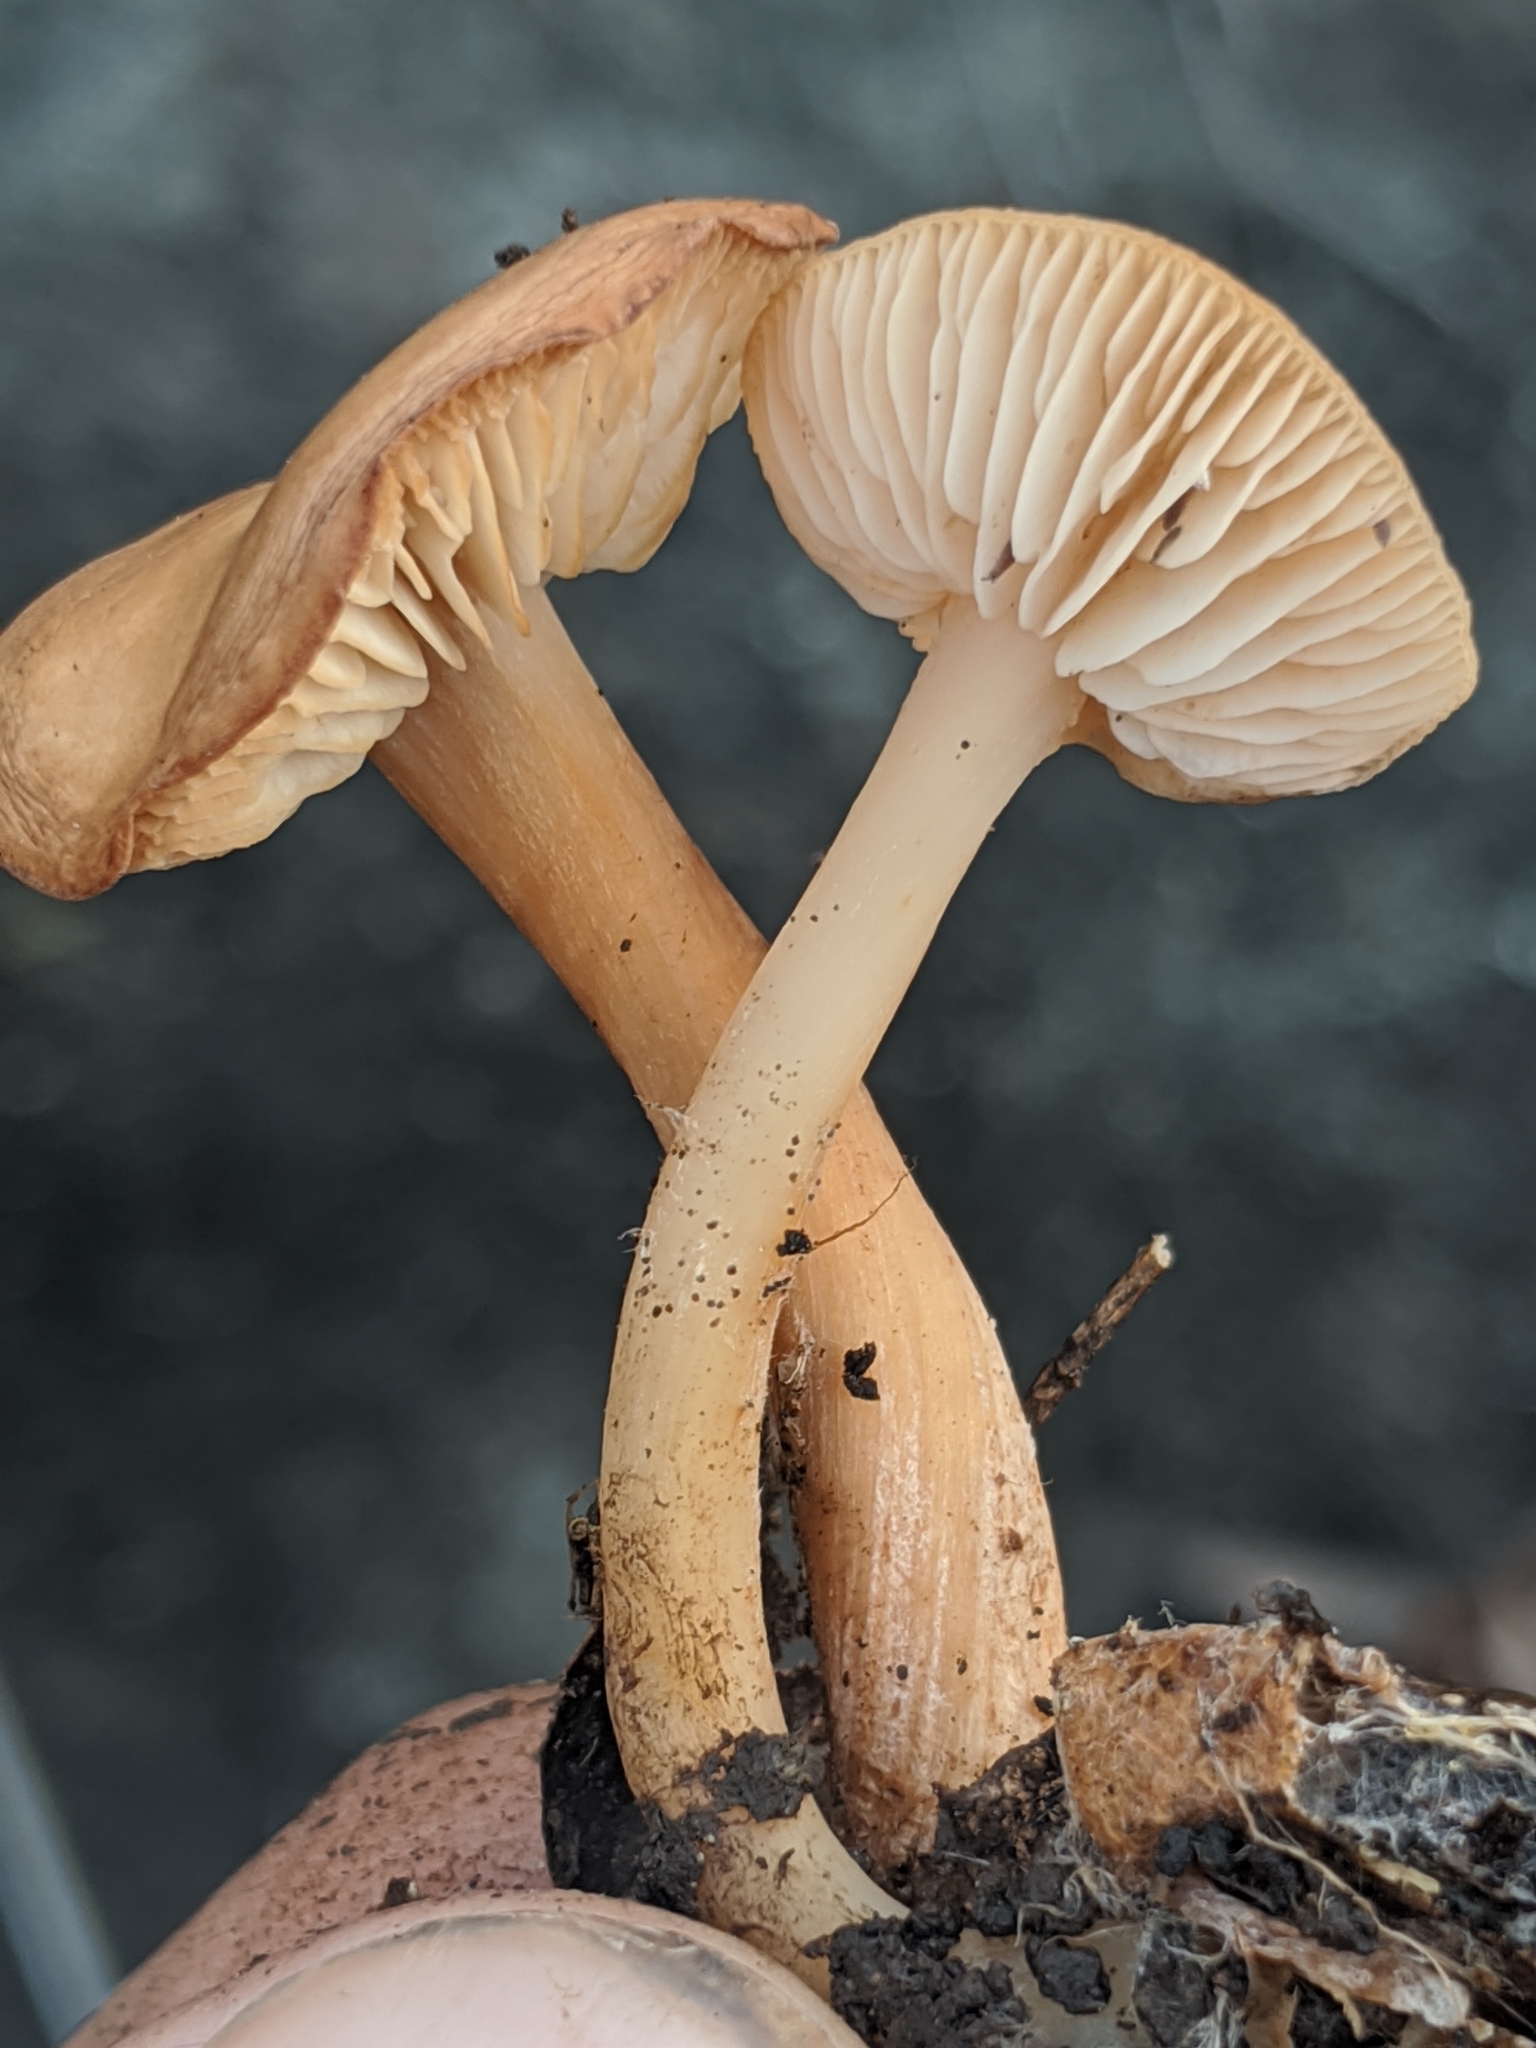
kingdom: Fungi
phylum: Basidiomycota
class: Agaricomycetes
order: Agaricales
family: Omphalotaceae
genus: Gymnopus
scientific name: Gymnopus dryophilus
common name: Penny top
